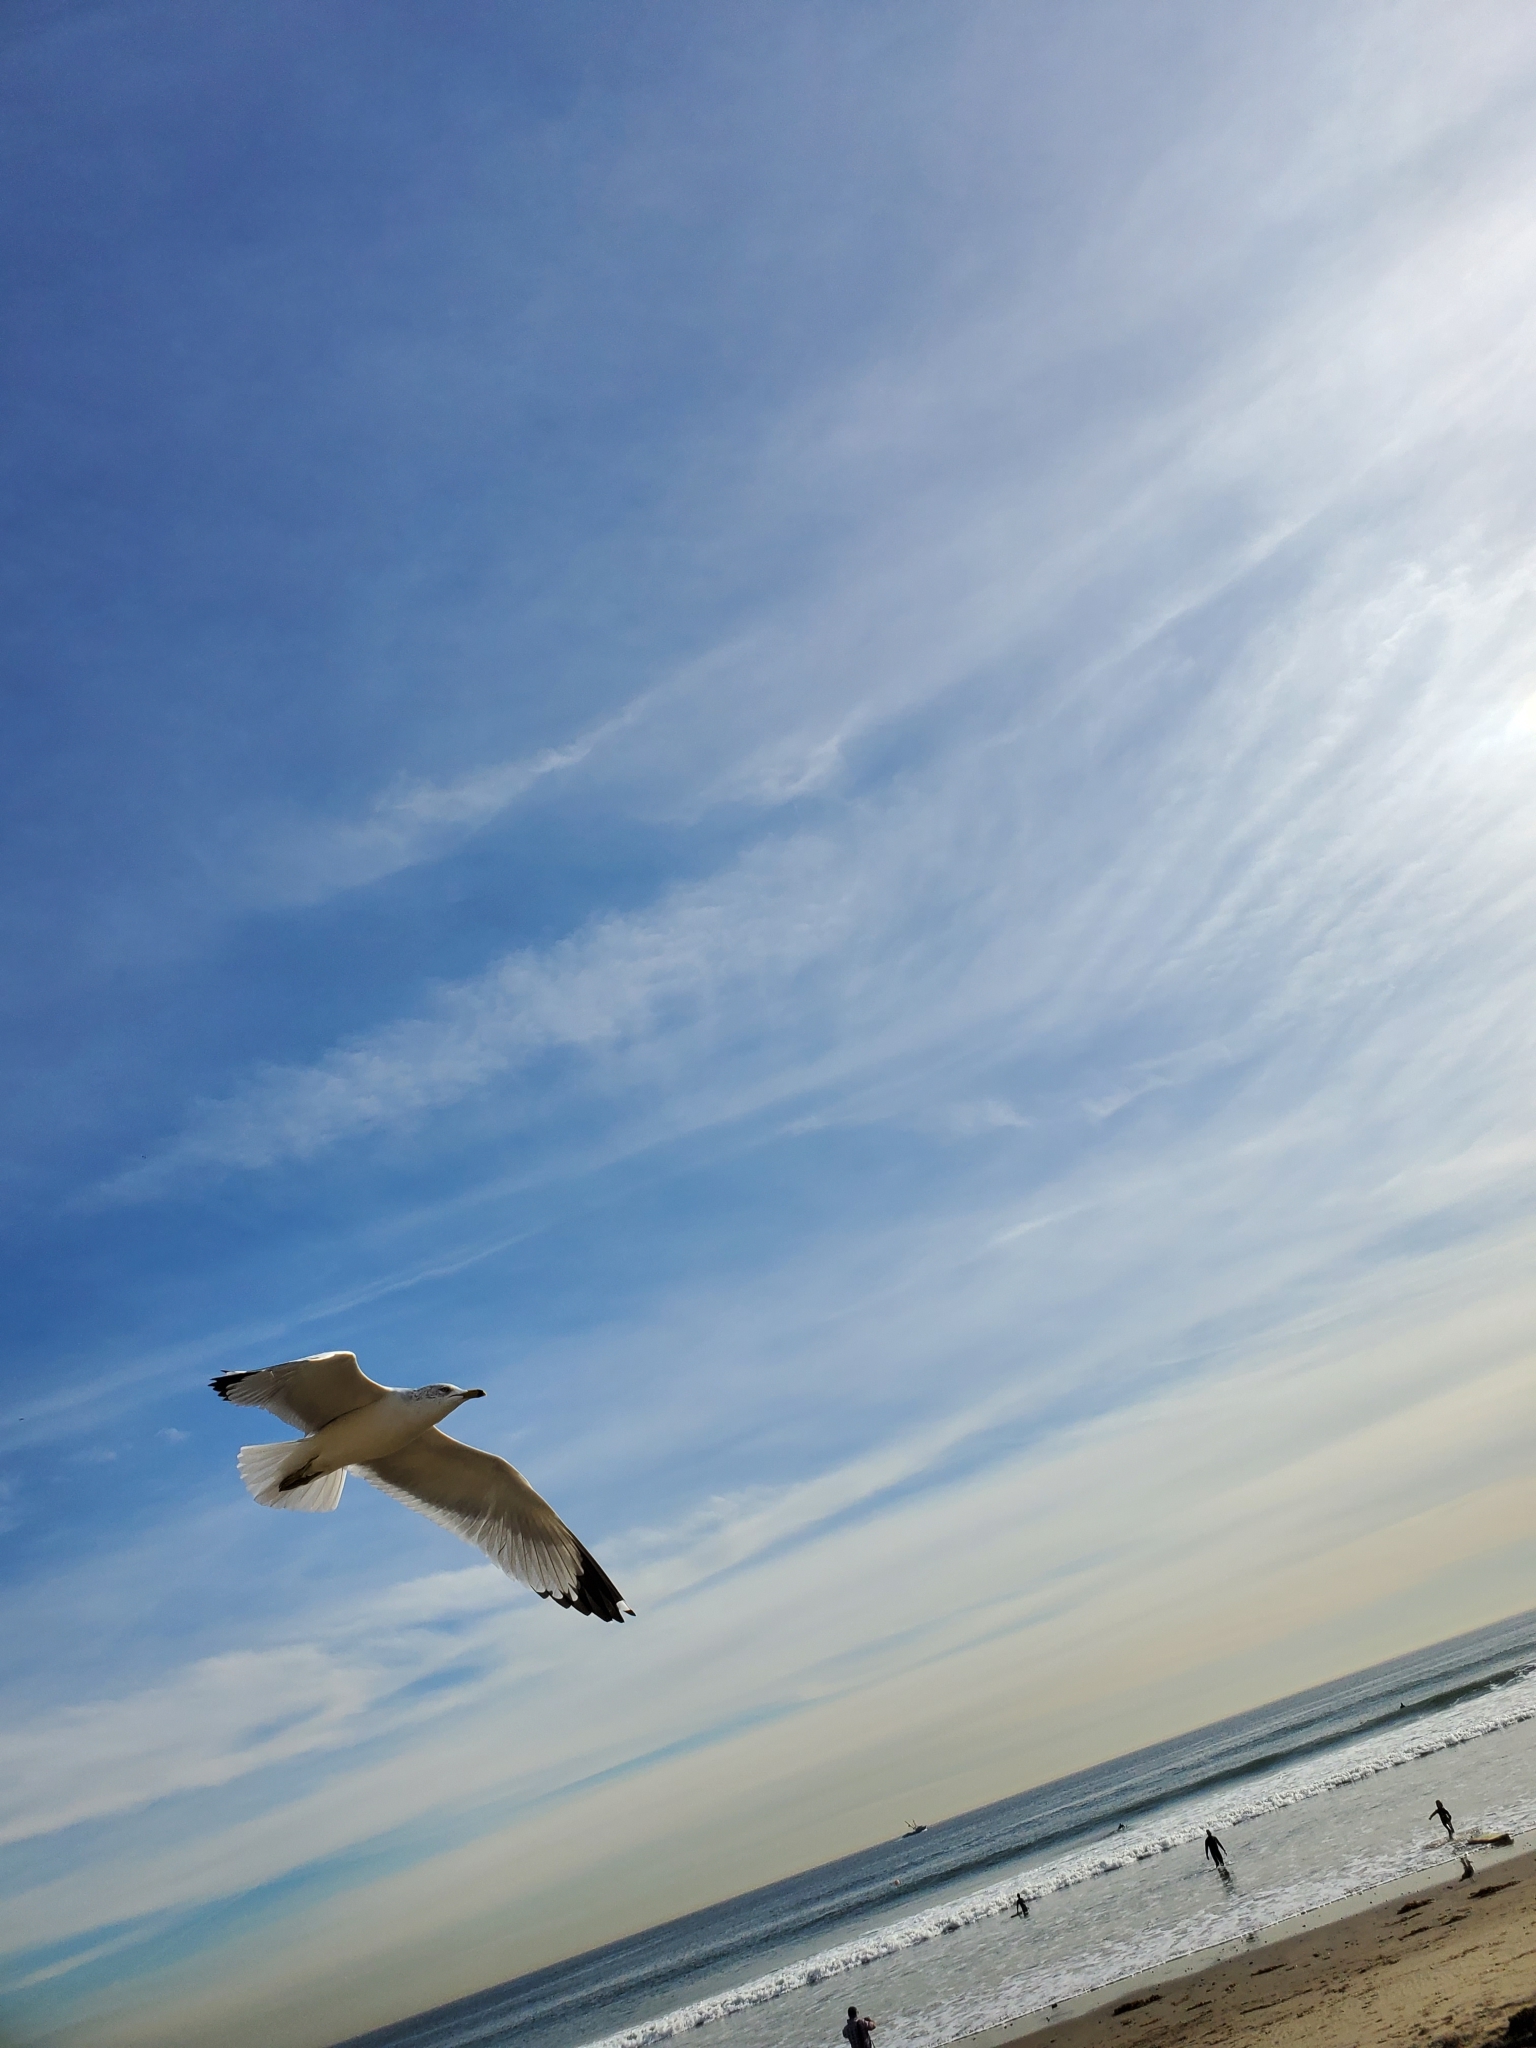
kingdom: Animalia
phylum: Chordata
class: Aves
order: Charadriiformes
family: Laridae
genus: Larus
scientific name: Larus delawarensis
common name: Ring-billed gull
